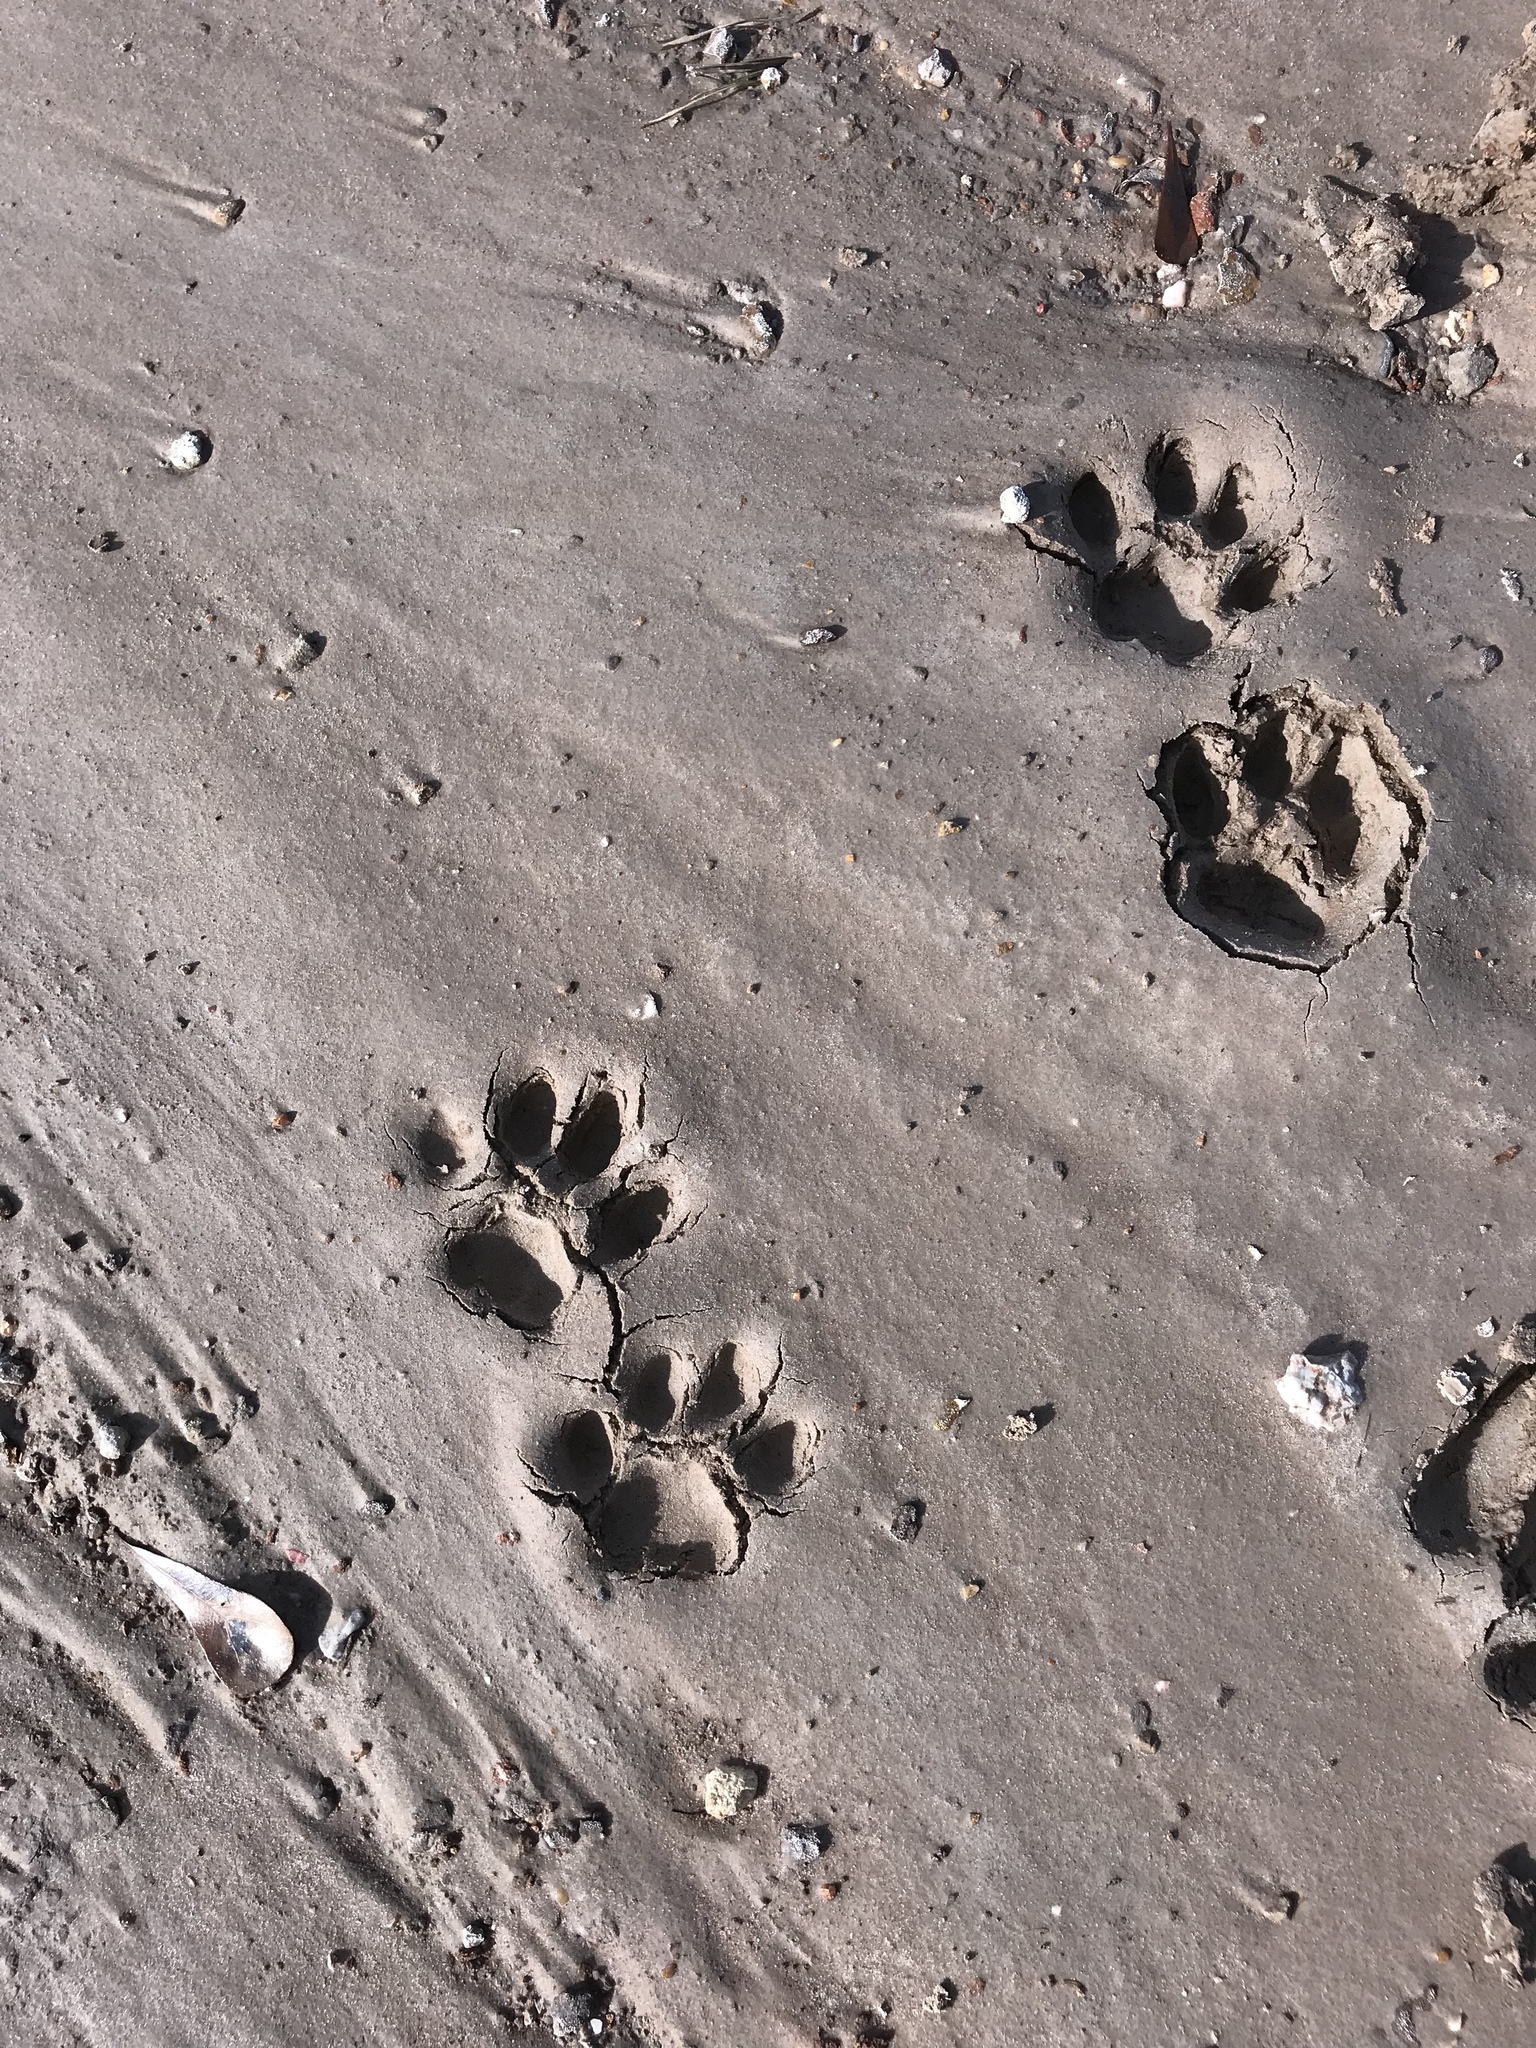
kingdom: Animalia
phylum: Chordata
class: Mammalia
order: Carnivora
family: Felidae
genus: Lynx
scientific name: Lynx rufus
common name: Bobcat
